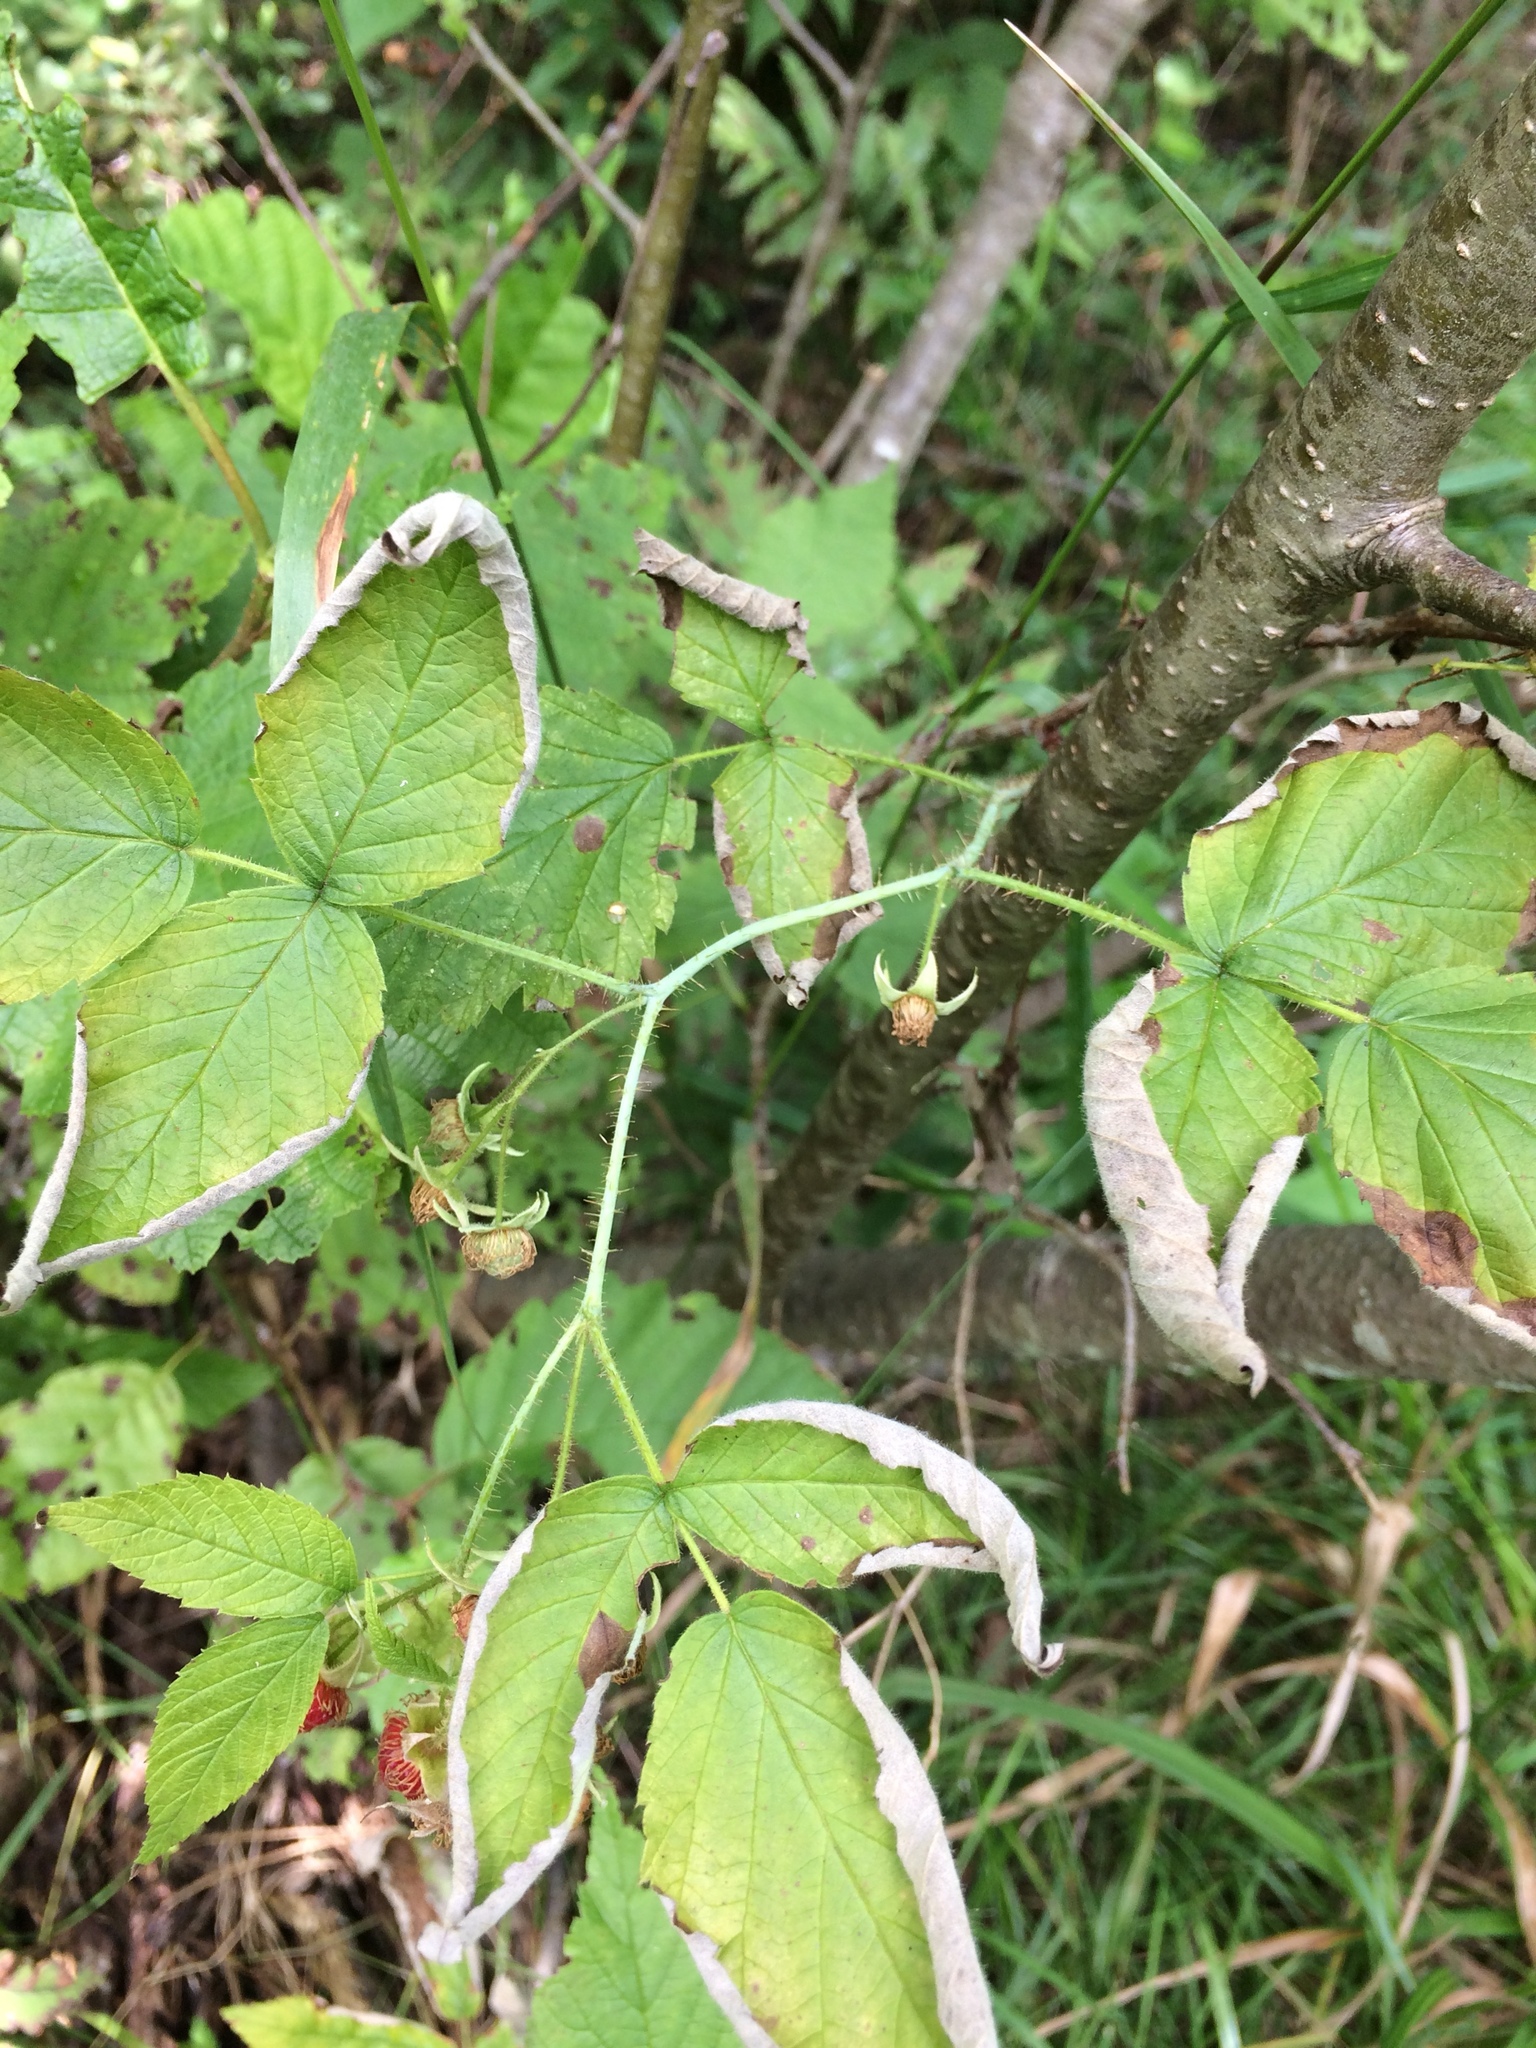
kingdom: Plantae
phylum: Tracheophyta
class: Magnoliopsida
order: Rosales
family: Rosaceae
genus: Rubus
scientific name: Rubus idaeus
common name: Raspberry
